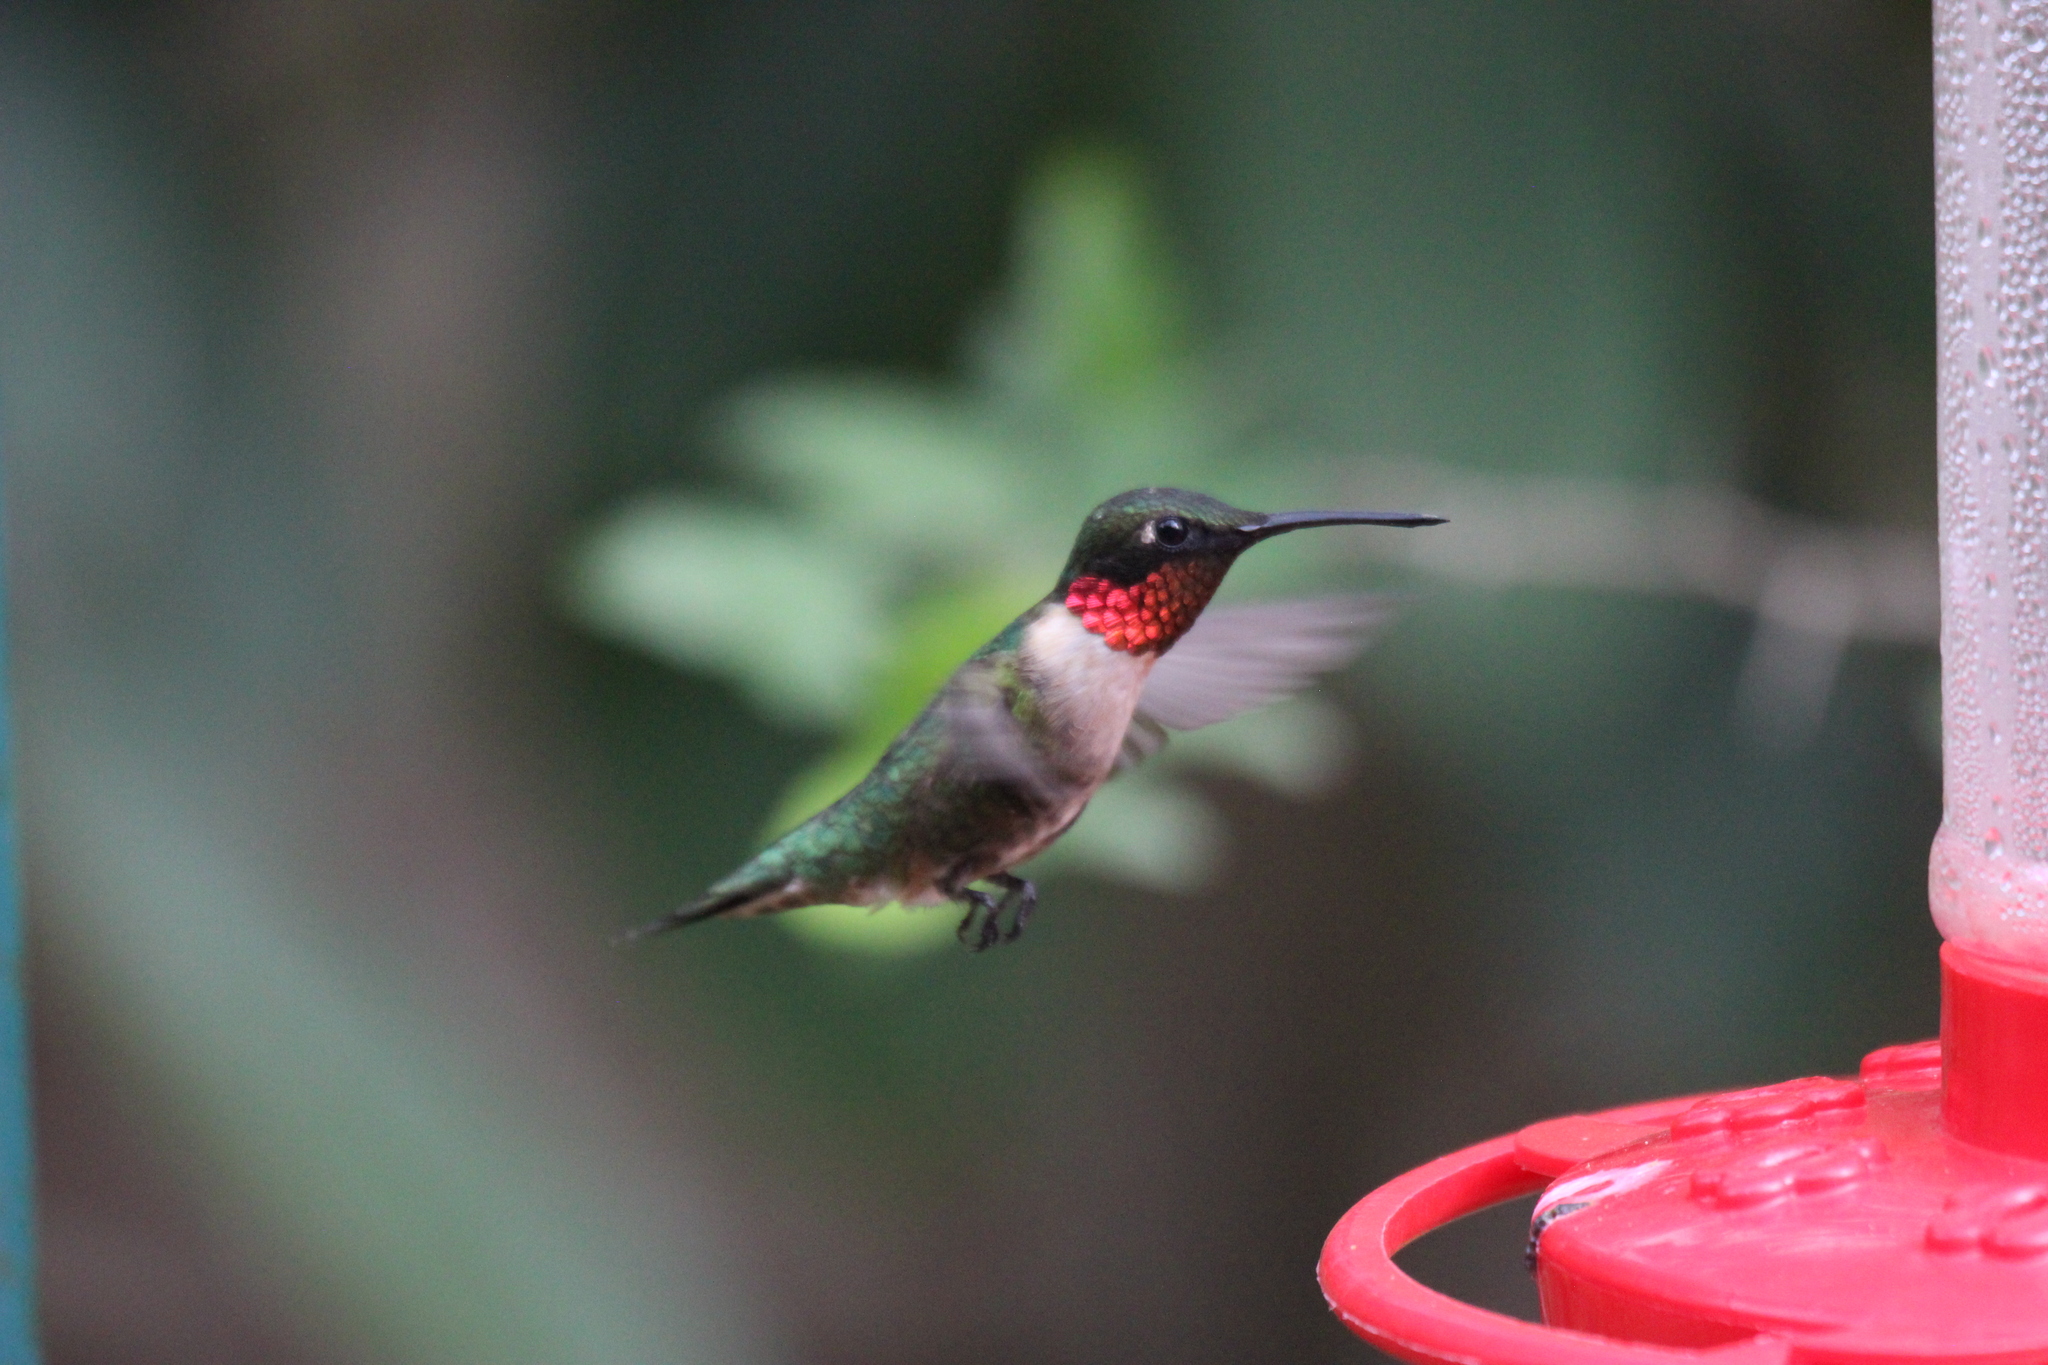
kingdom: Animalia
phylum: Chordata
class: Aves
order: Apodiformes
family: Trochilidae
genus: Archilochus
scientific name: Archilochus colubris
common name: Ruby-throated hummingbird
